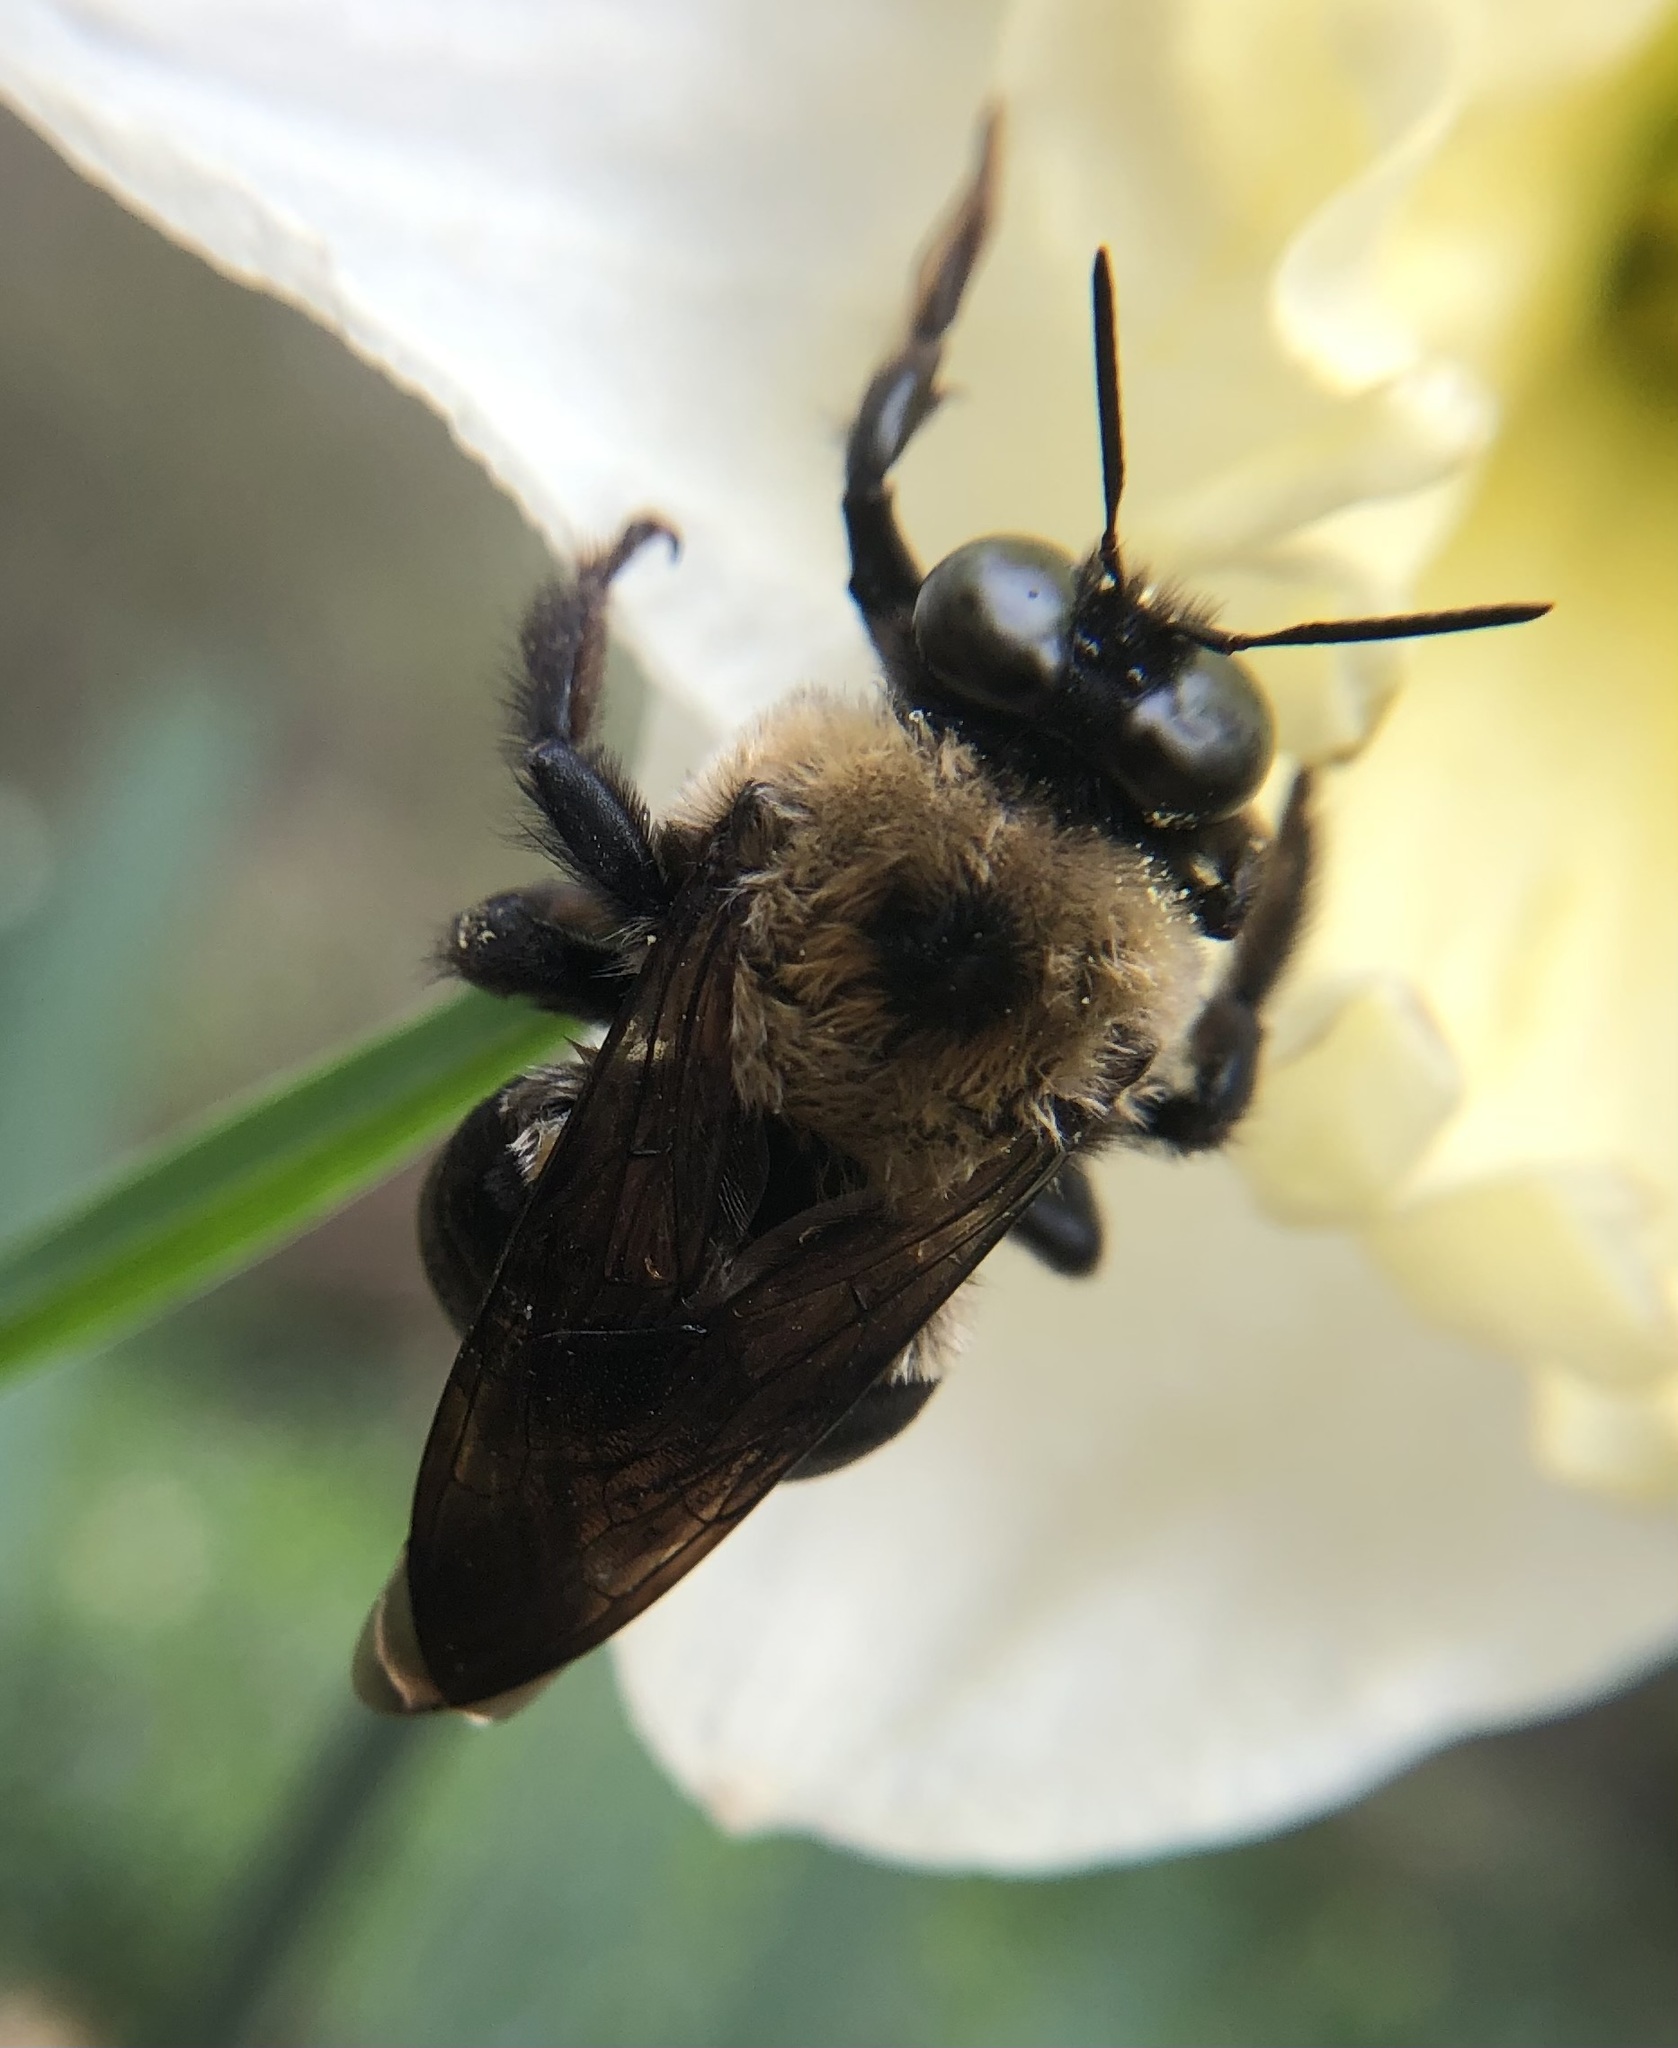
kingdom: Animalia
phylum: Arthropoda
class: Insecta
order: Hymenoptera
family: Apidae
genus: Xylocopa
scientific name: Xylocopa virginica
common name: Carpenter bee
